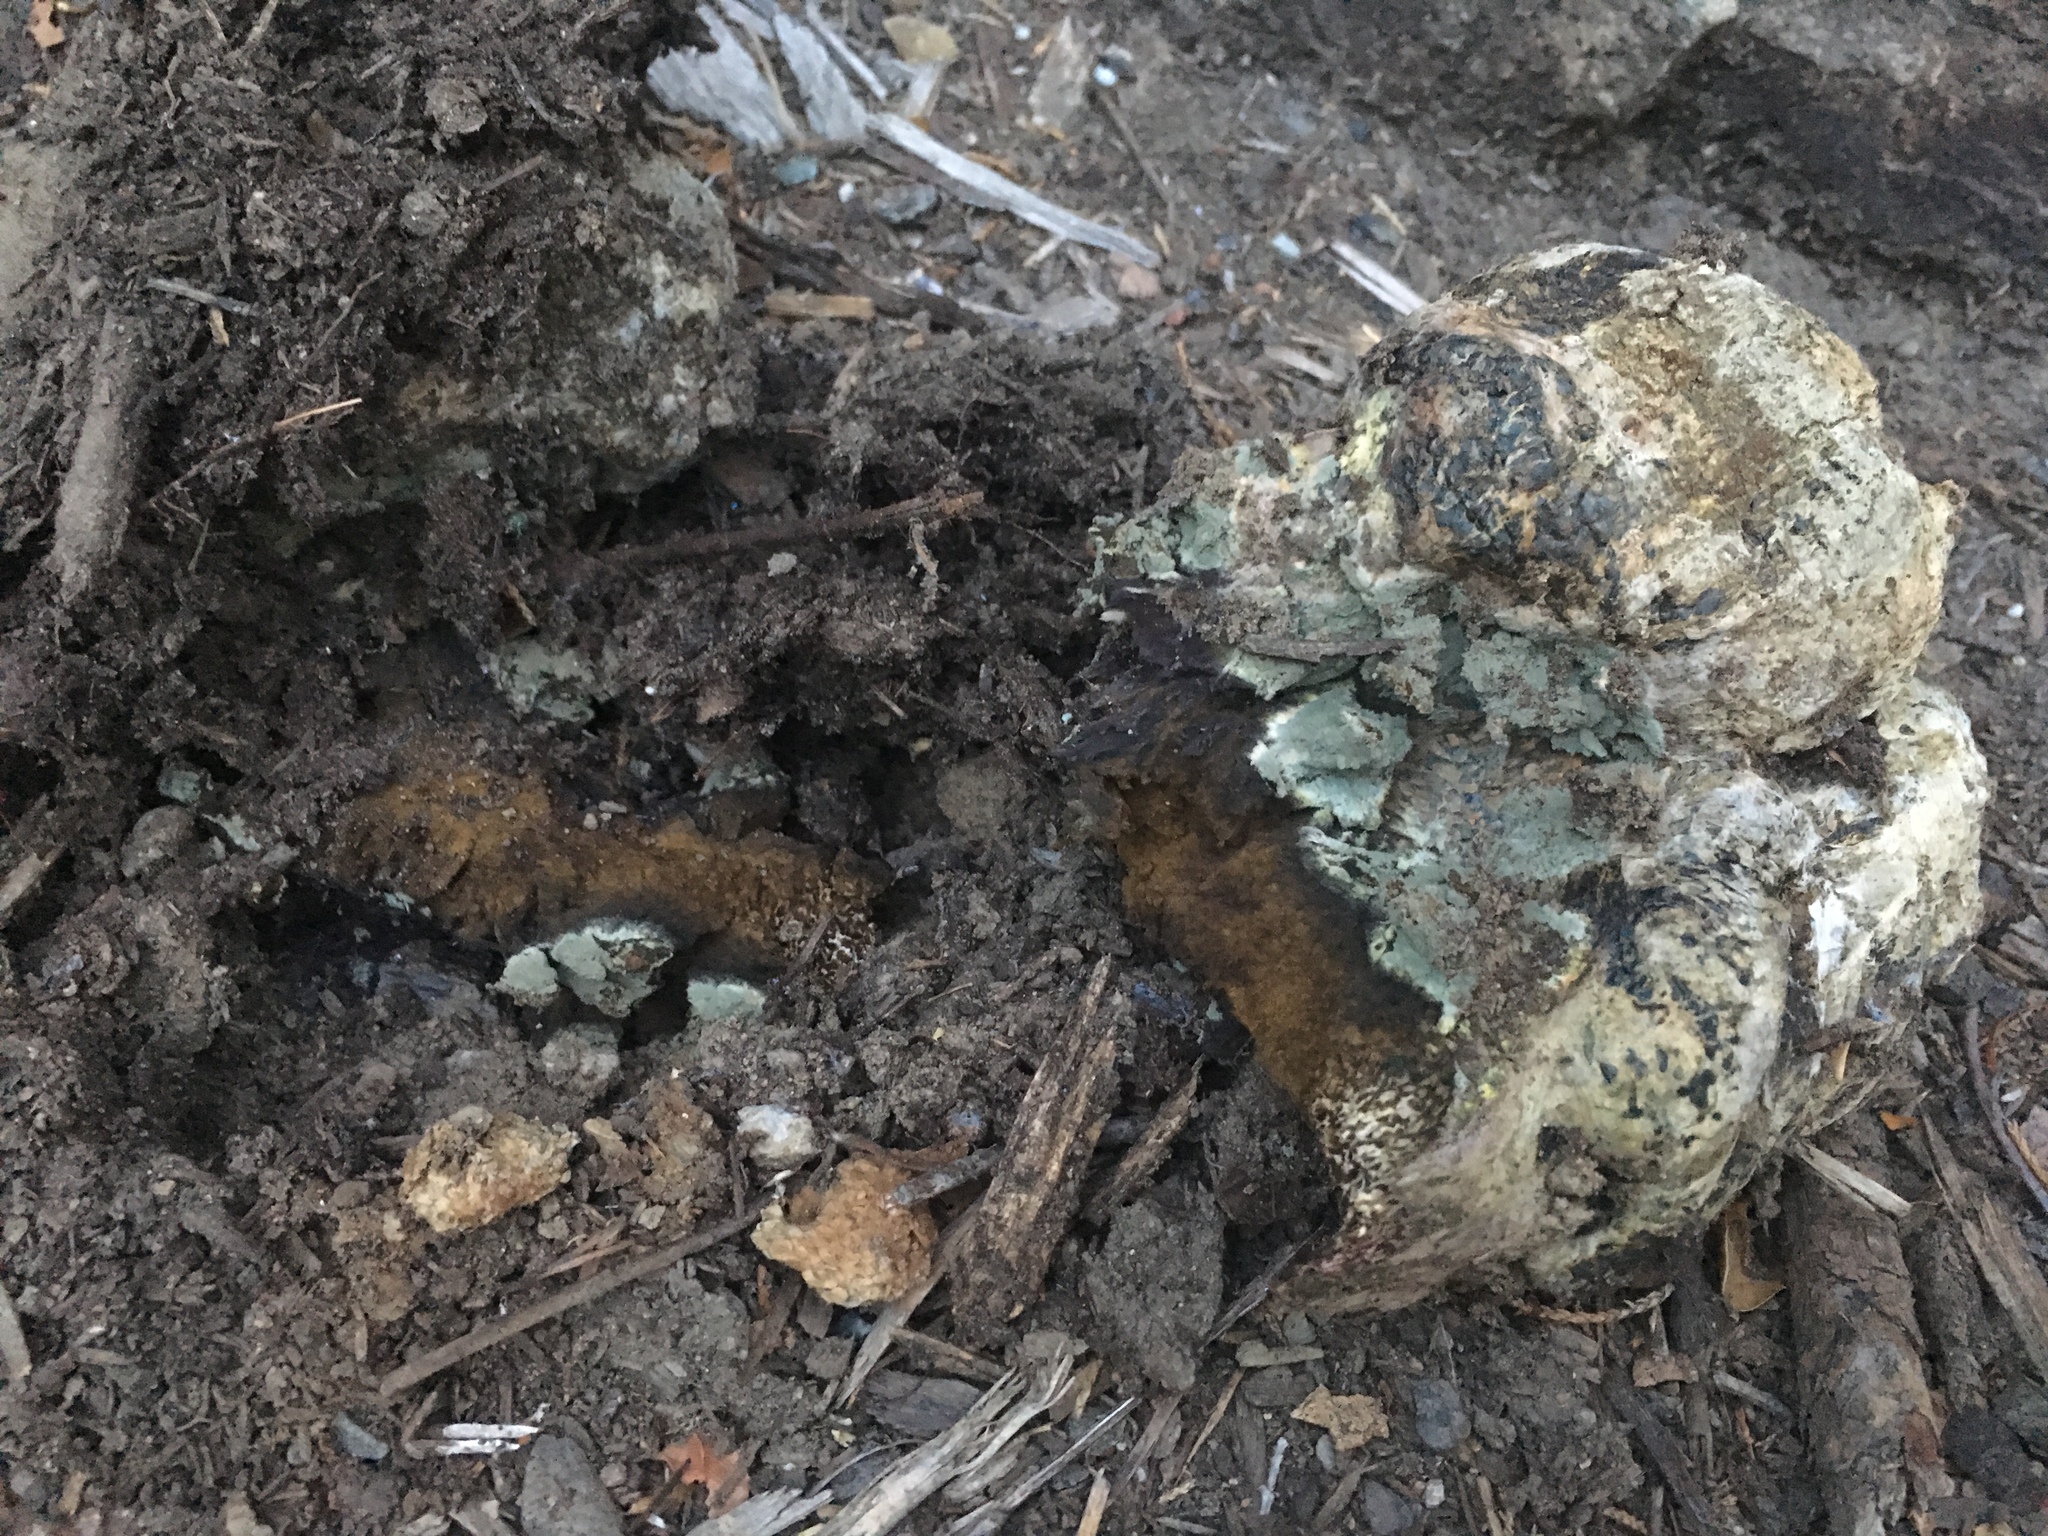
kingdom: Fungi
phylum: Basidiomycota
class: Agaricomycetes
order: Boletales
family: Sclerodermataceae
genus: Pisolithus
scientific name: Pisolithus arhizus
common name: Dyeball
